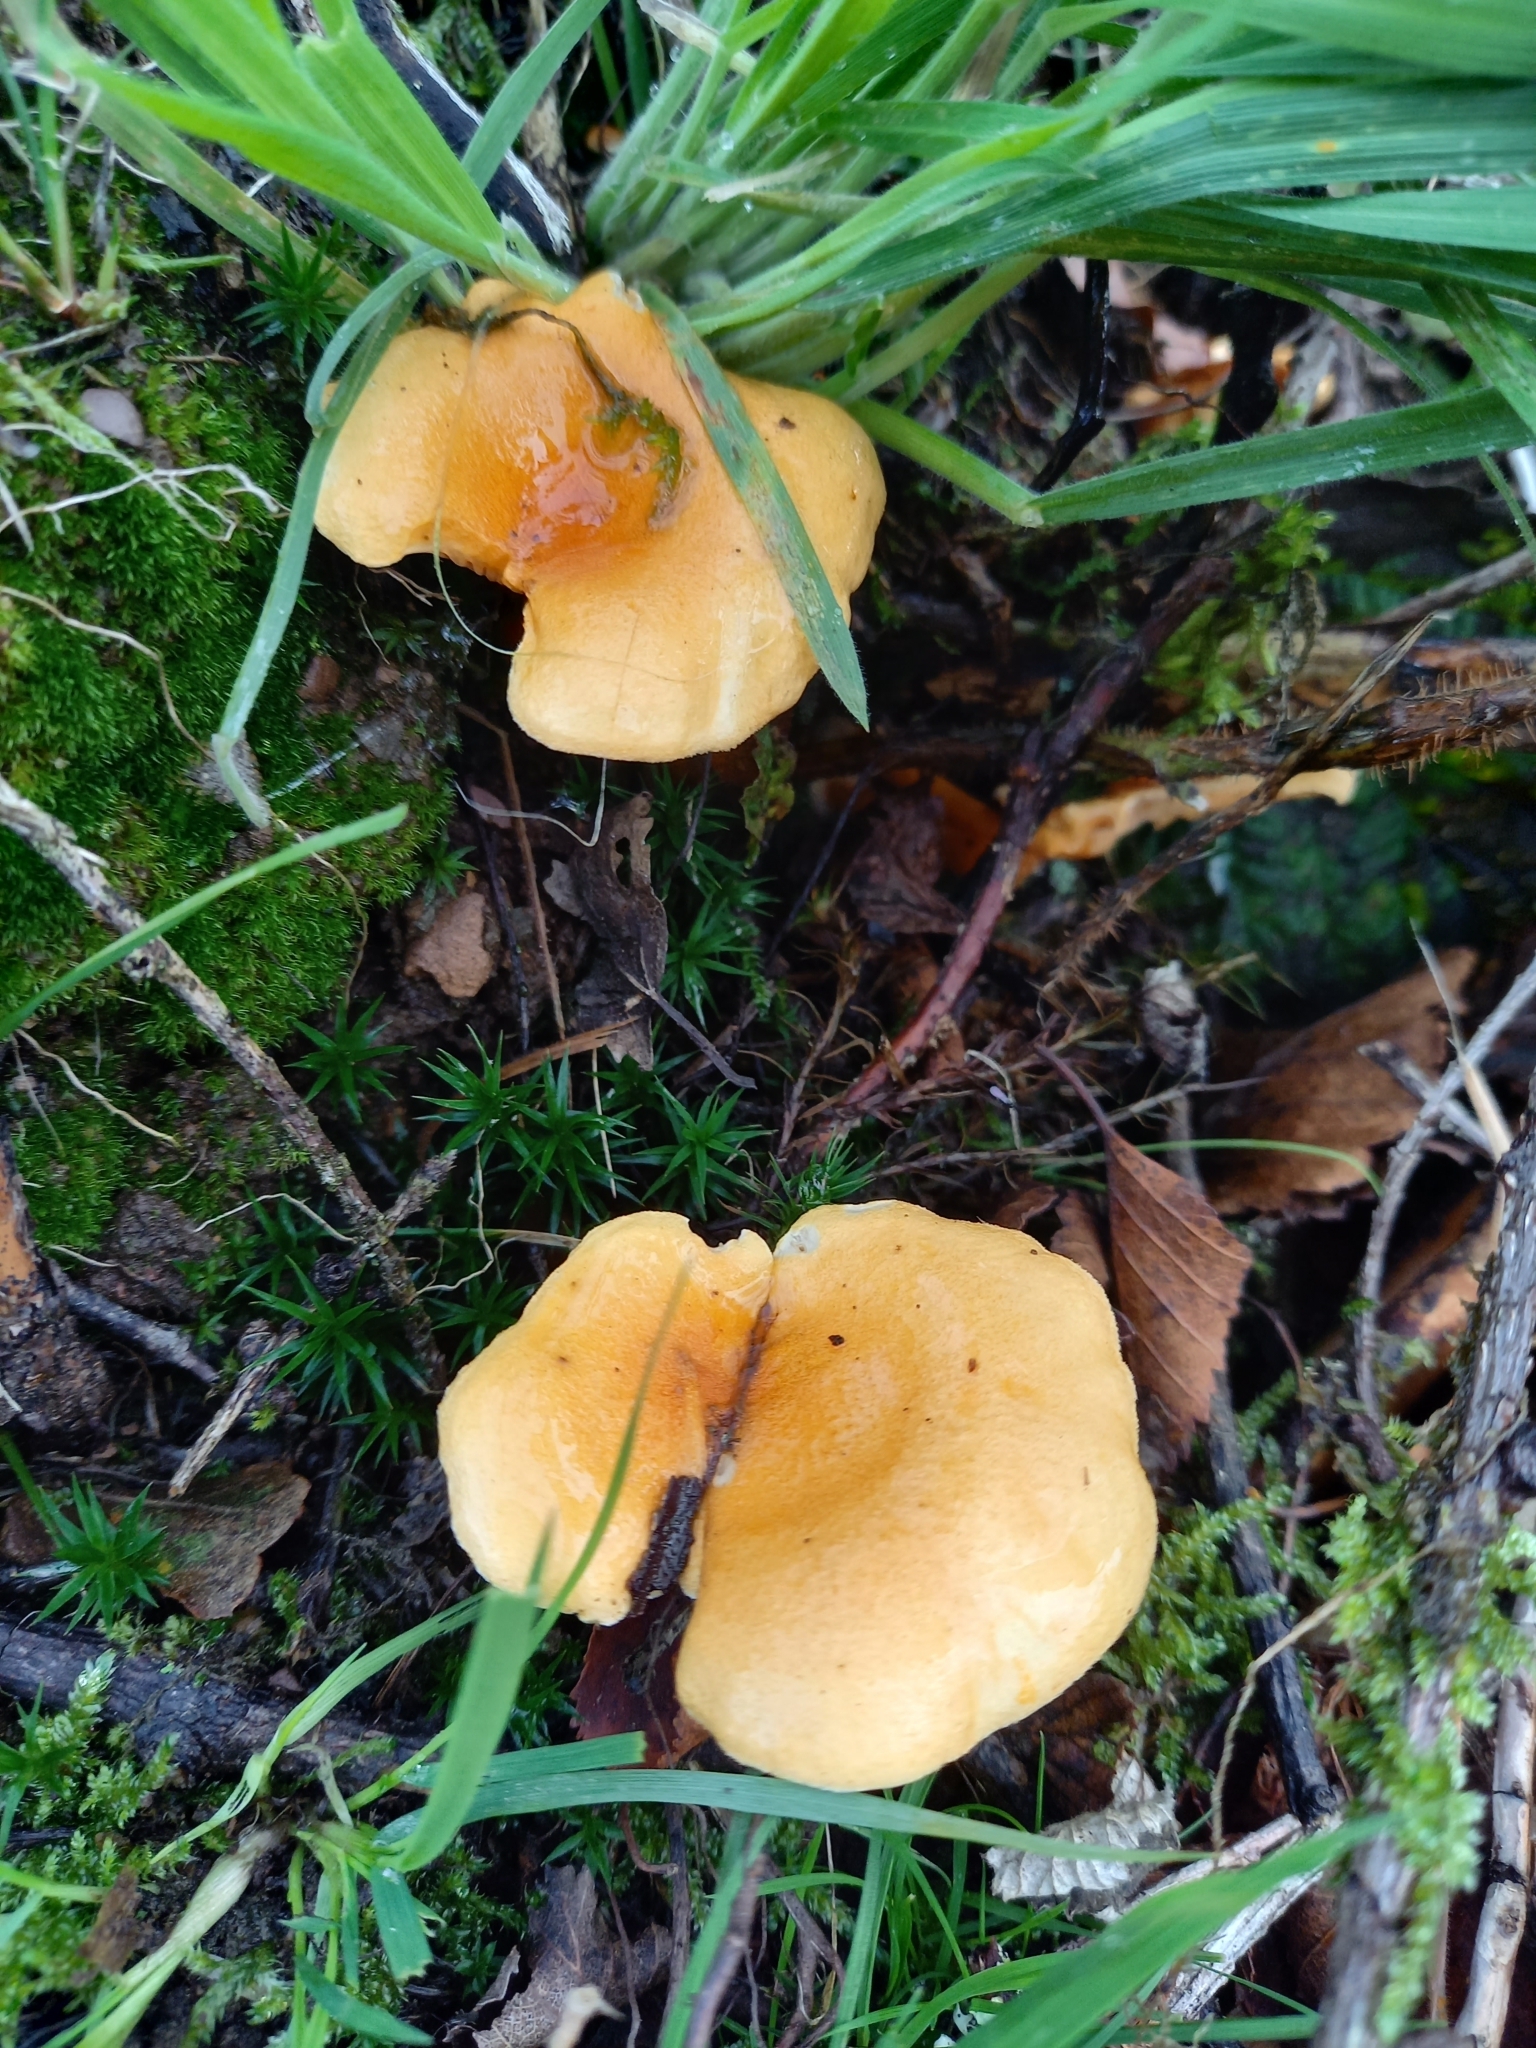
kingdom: Fungi
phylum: Basidiomycota
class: Agaricomycetes
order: Boletales
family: Hygrophoropsidaceae
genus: Hygrophoropsis
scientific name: Hygrophoropsis aurantiaca
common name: False chanterelle
